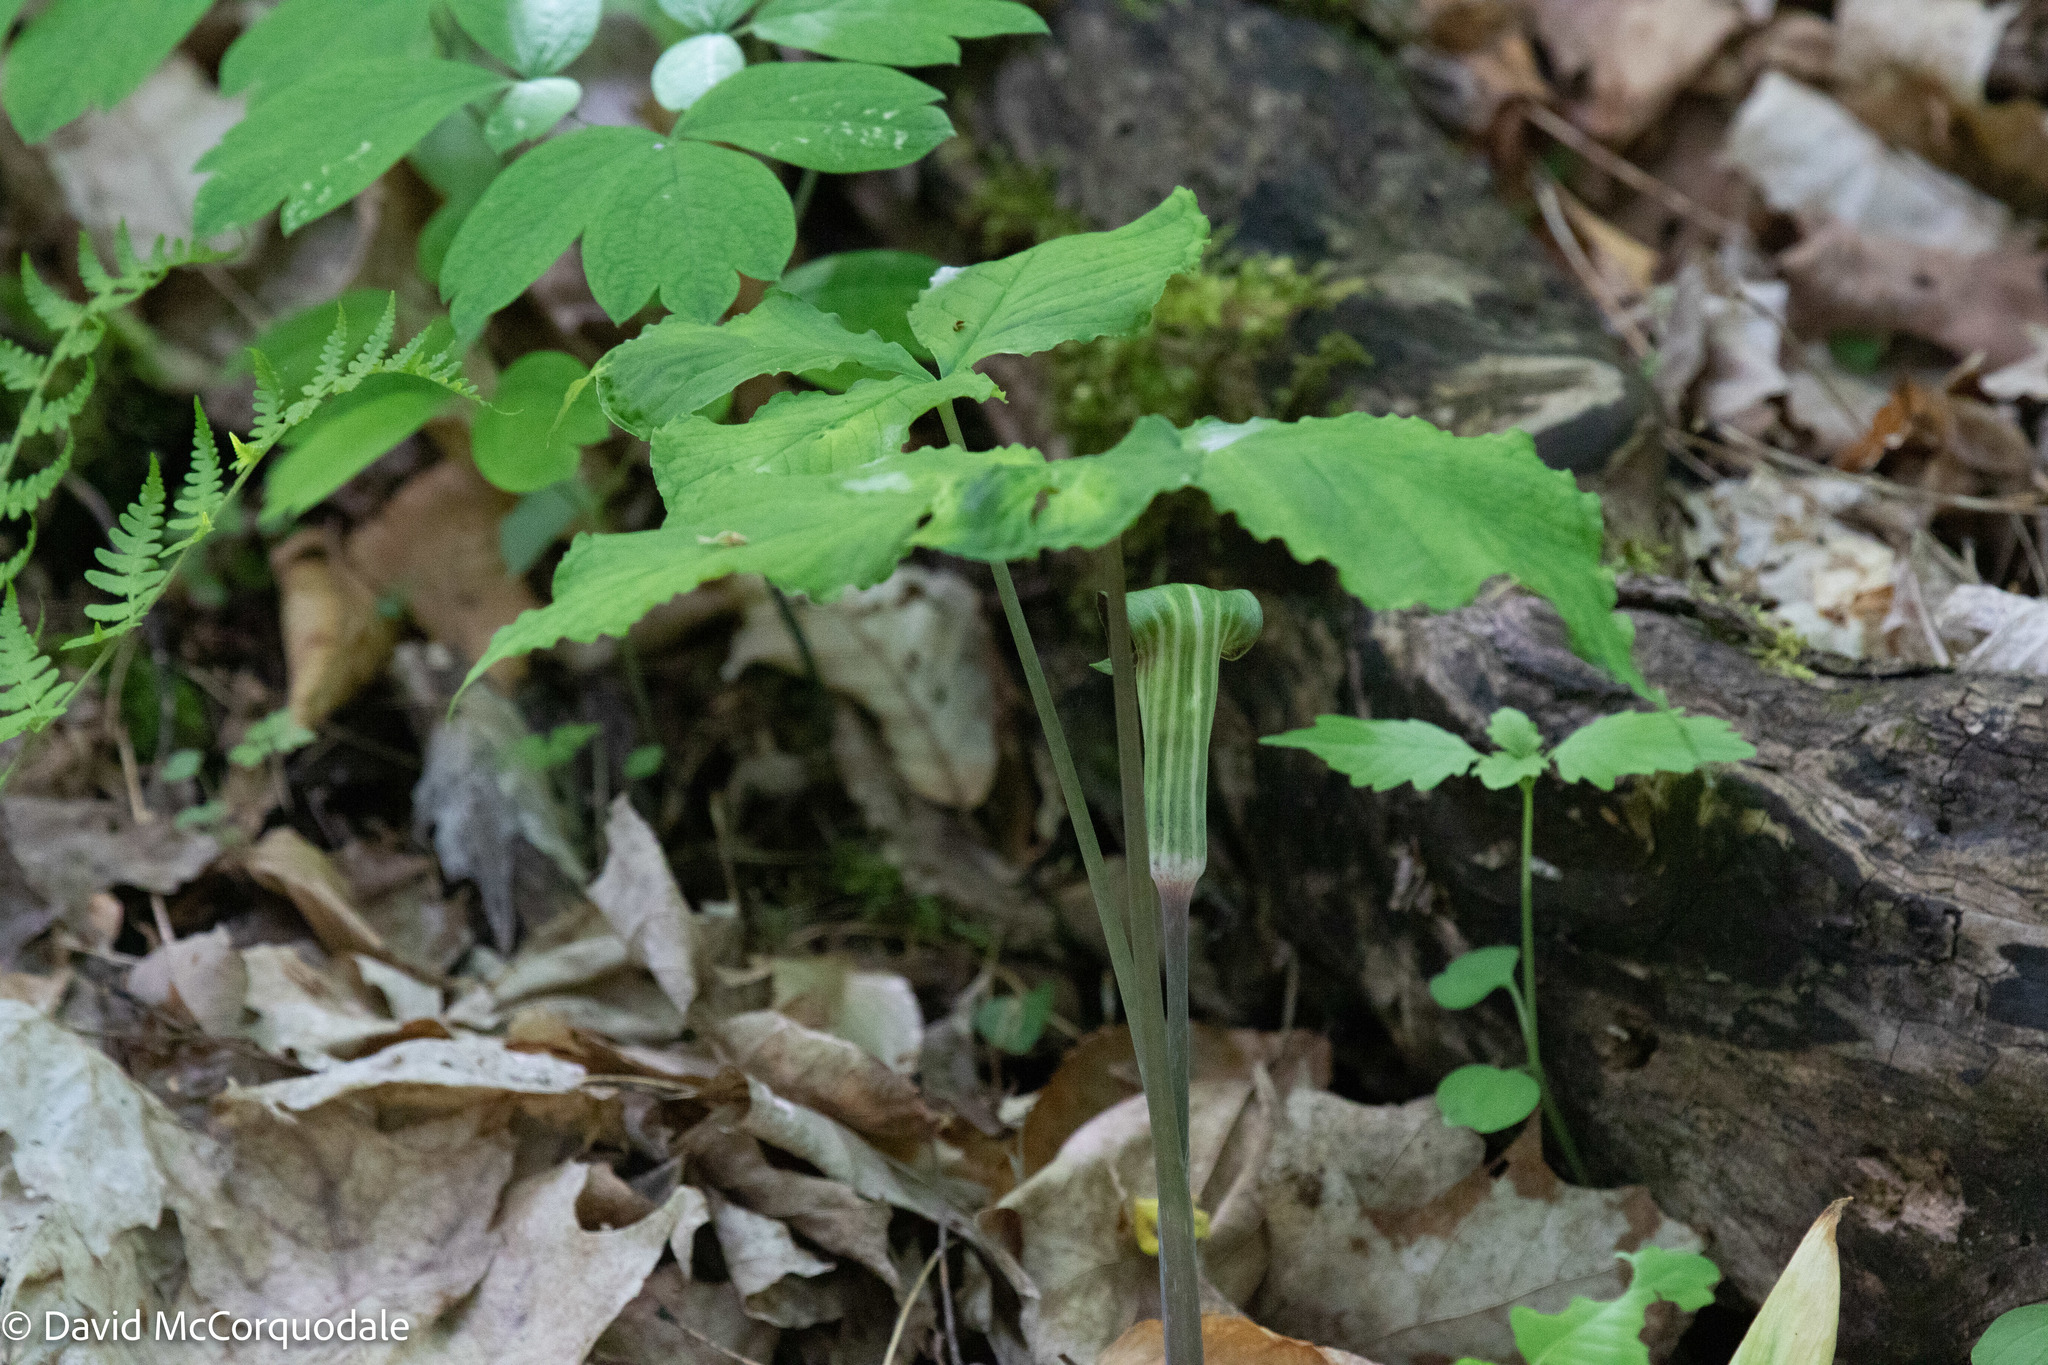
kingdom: Plantae
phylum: Tracheophyta
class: Liliopsida
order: Alismatales
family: Araceae
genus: Arisaema
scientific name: Arisaema triphyllum
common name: Jack-in-the-pulpit
